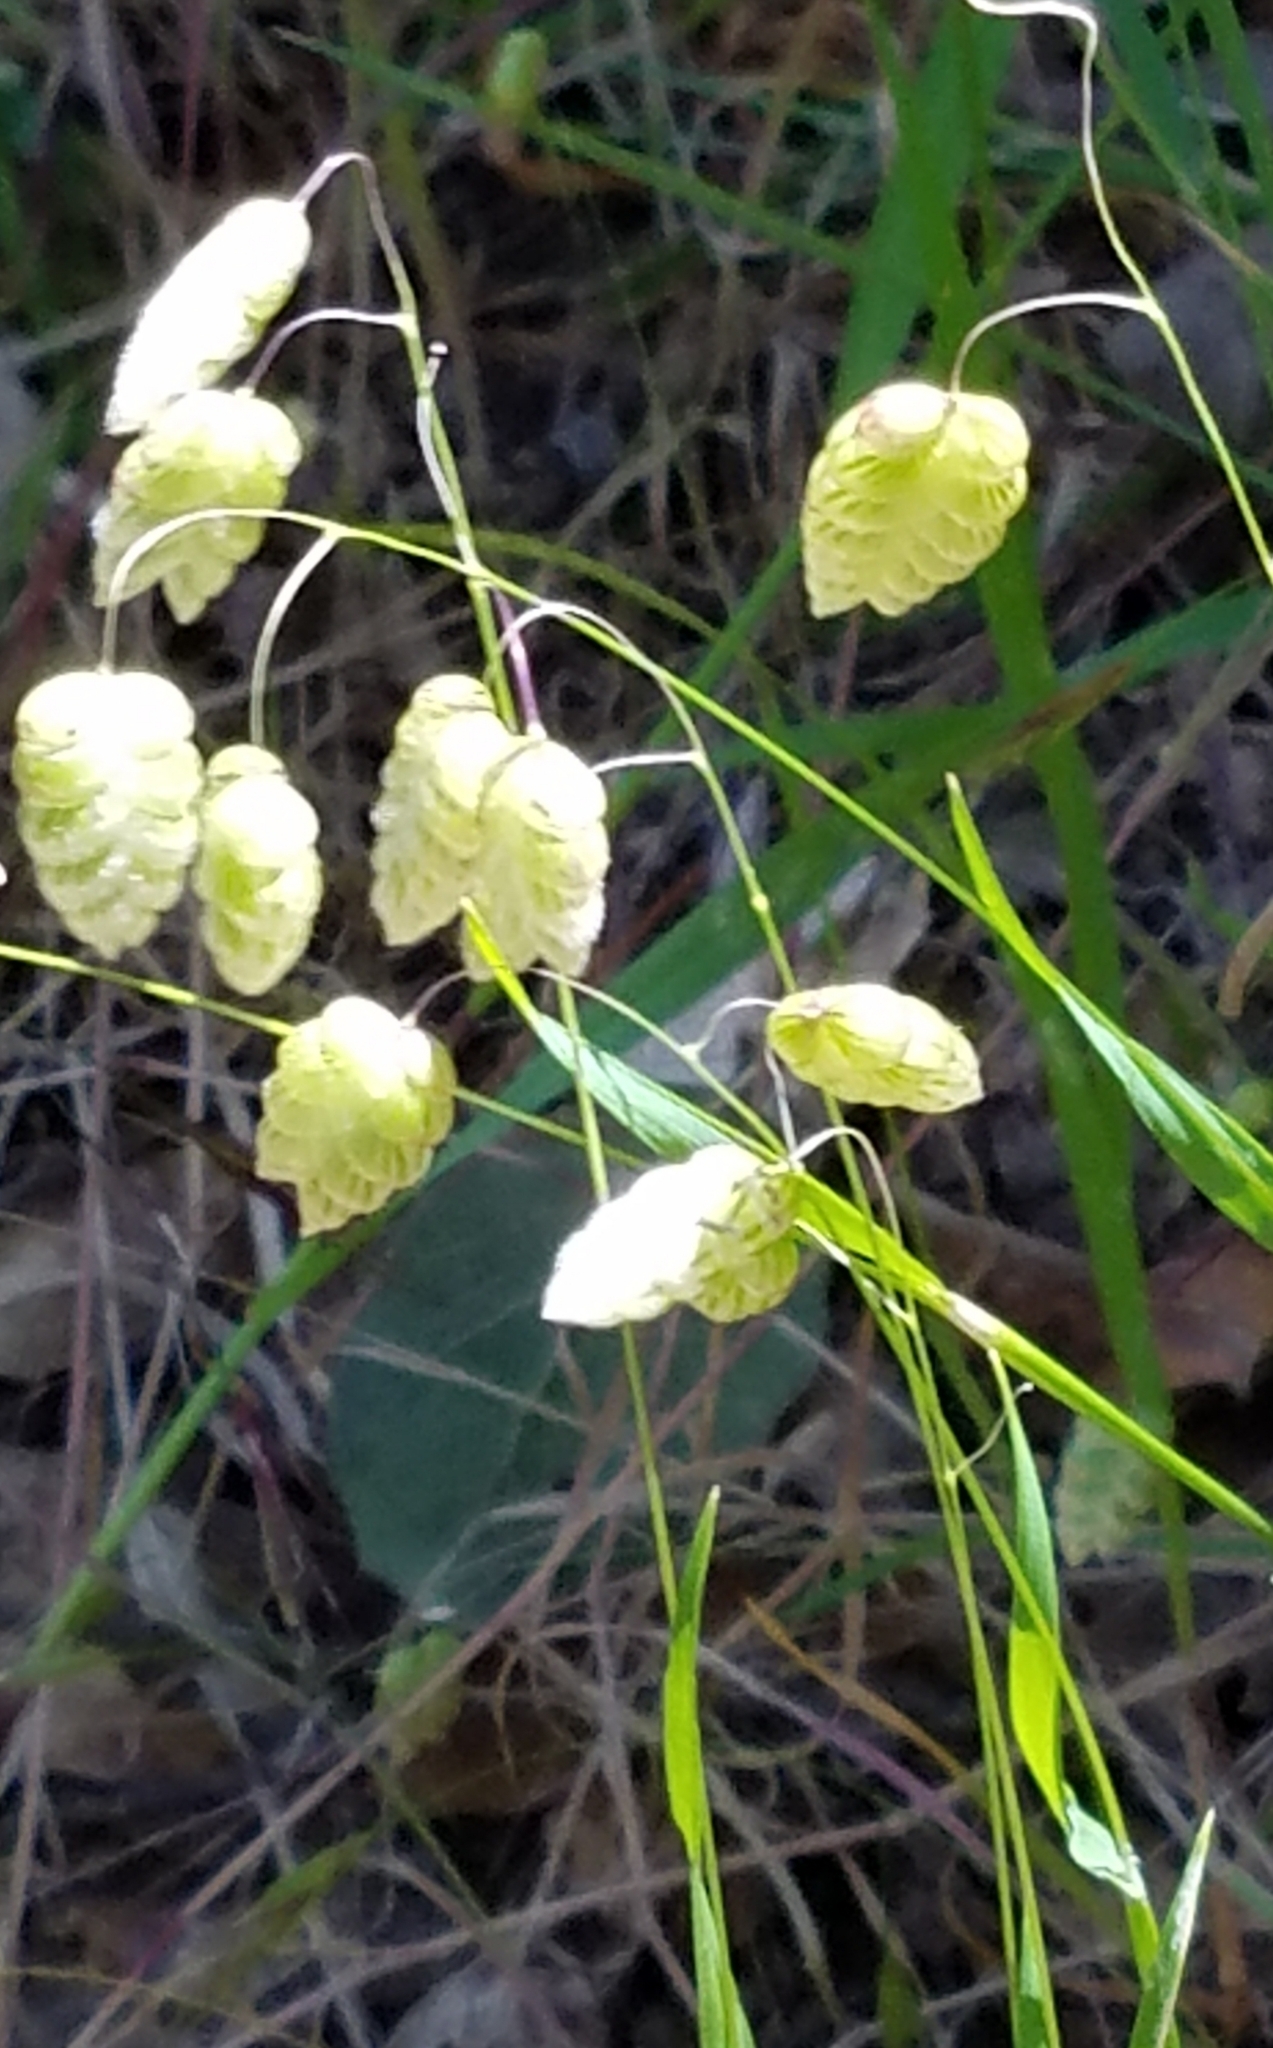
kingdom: Plantae
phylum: Tracheophyta
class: Liliopsida
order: Poales
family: Poaceae
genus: Briza
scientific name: Briza maxima
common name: Big quakinggrass
